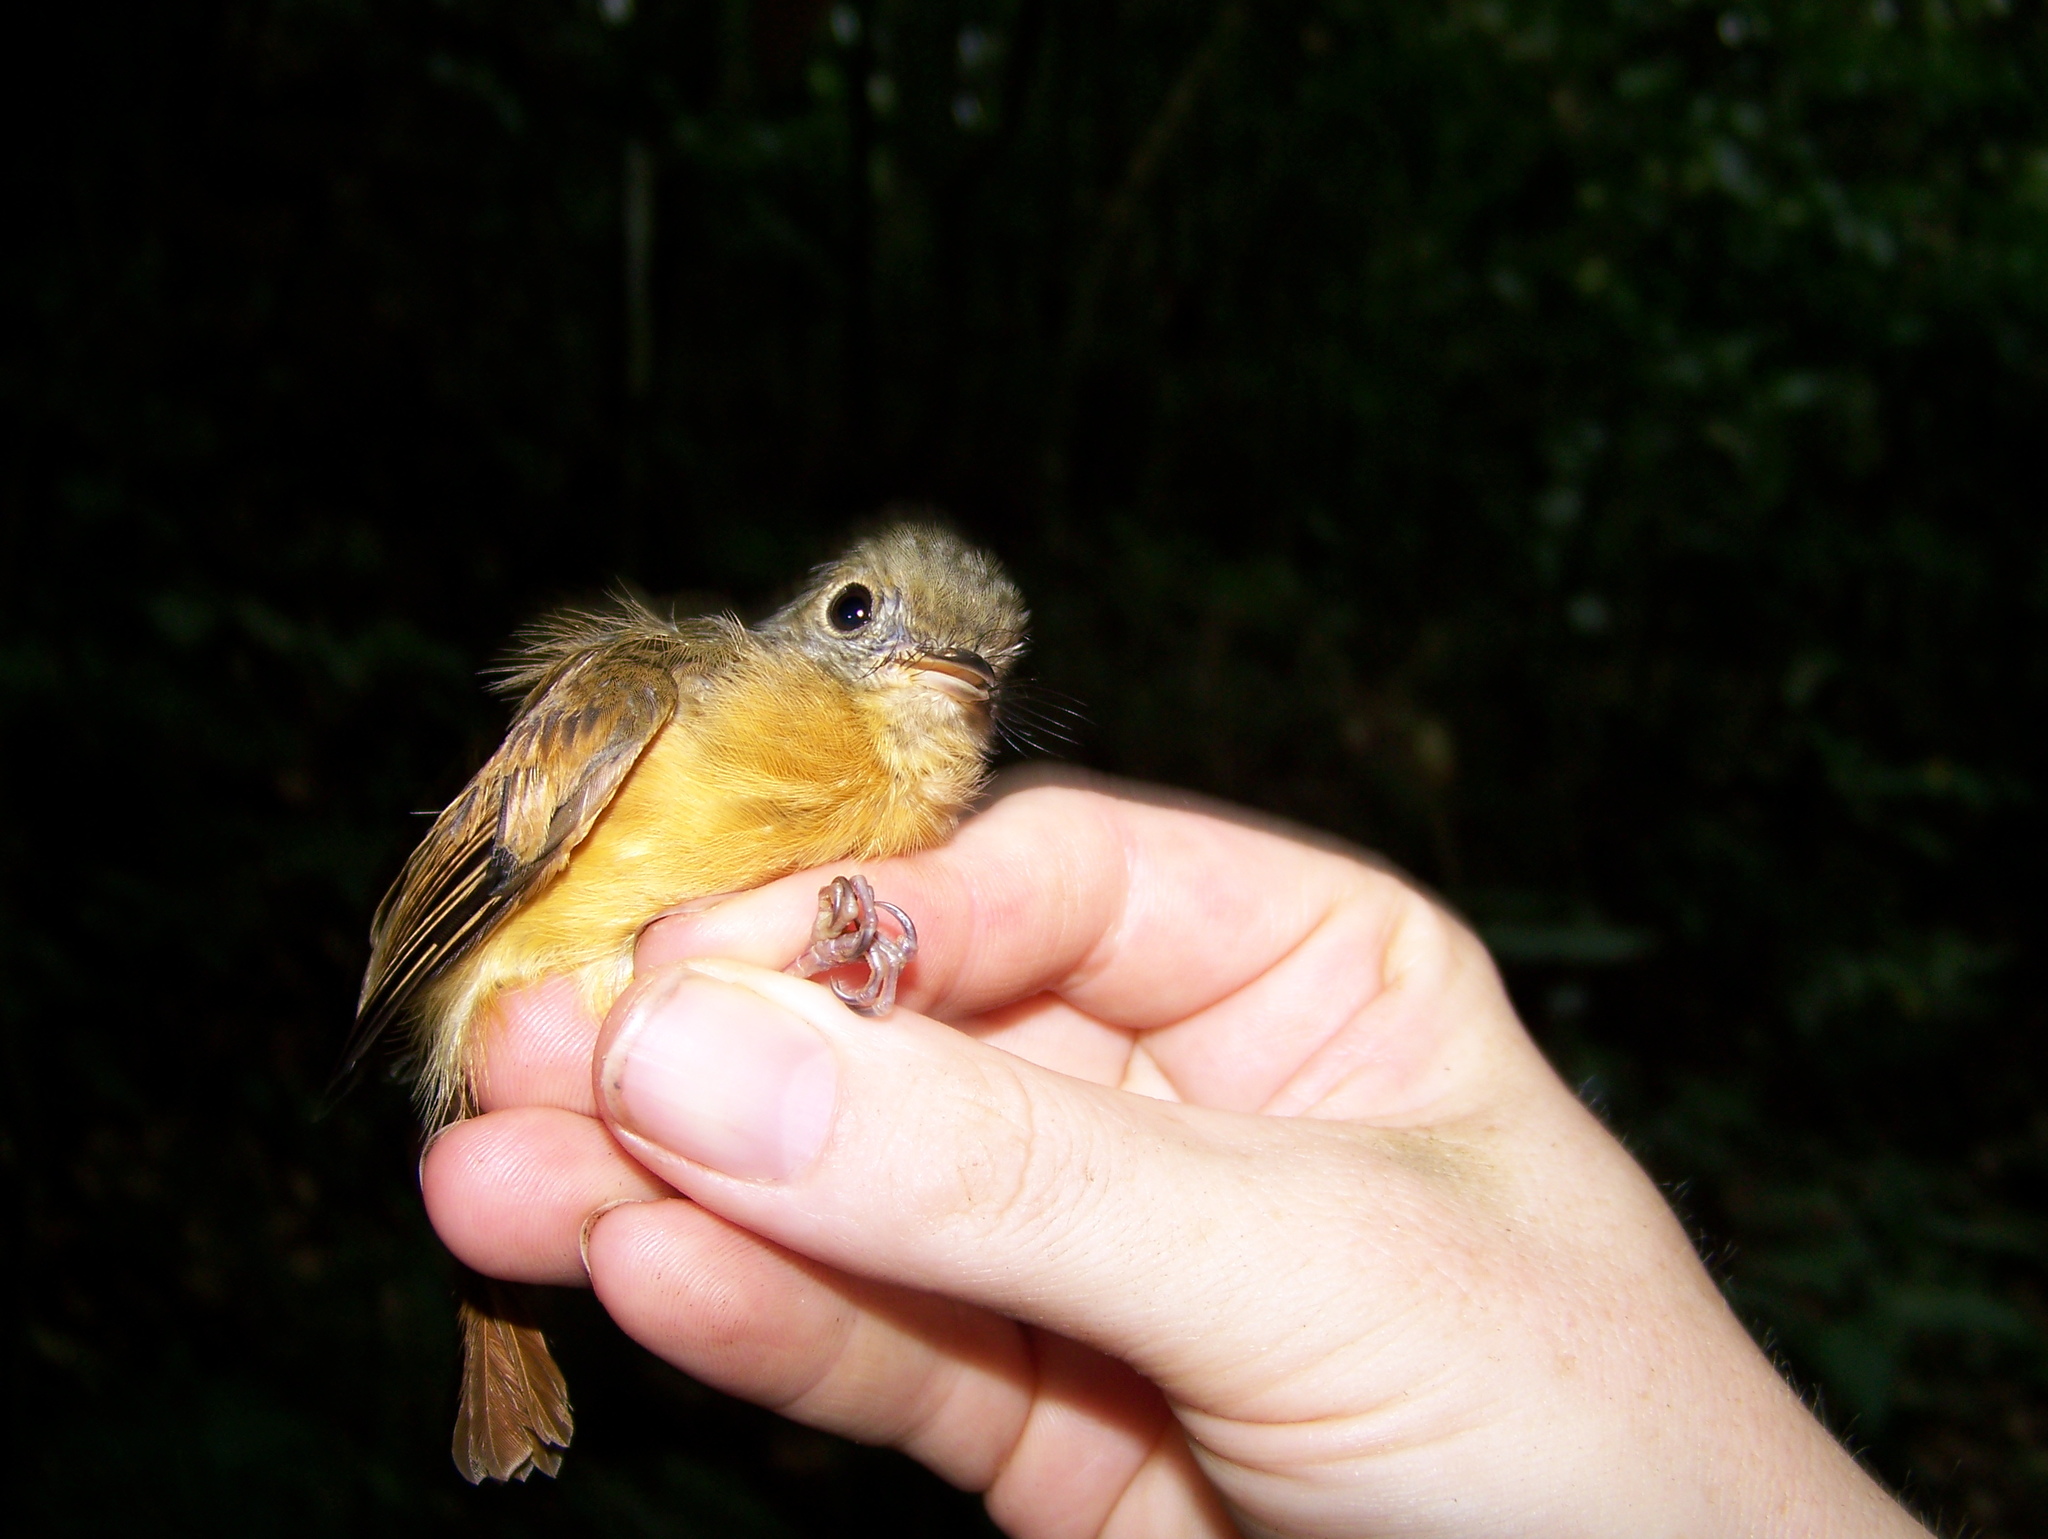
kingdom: Animalia
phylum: Chordata
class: Aves
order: Passeriformes
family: Tyrannidae
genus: Terenotriccus
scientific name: Terenotriccus erythrurus
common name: Ruddy-tailed flycatcher
